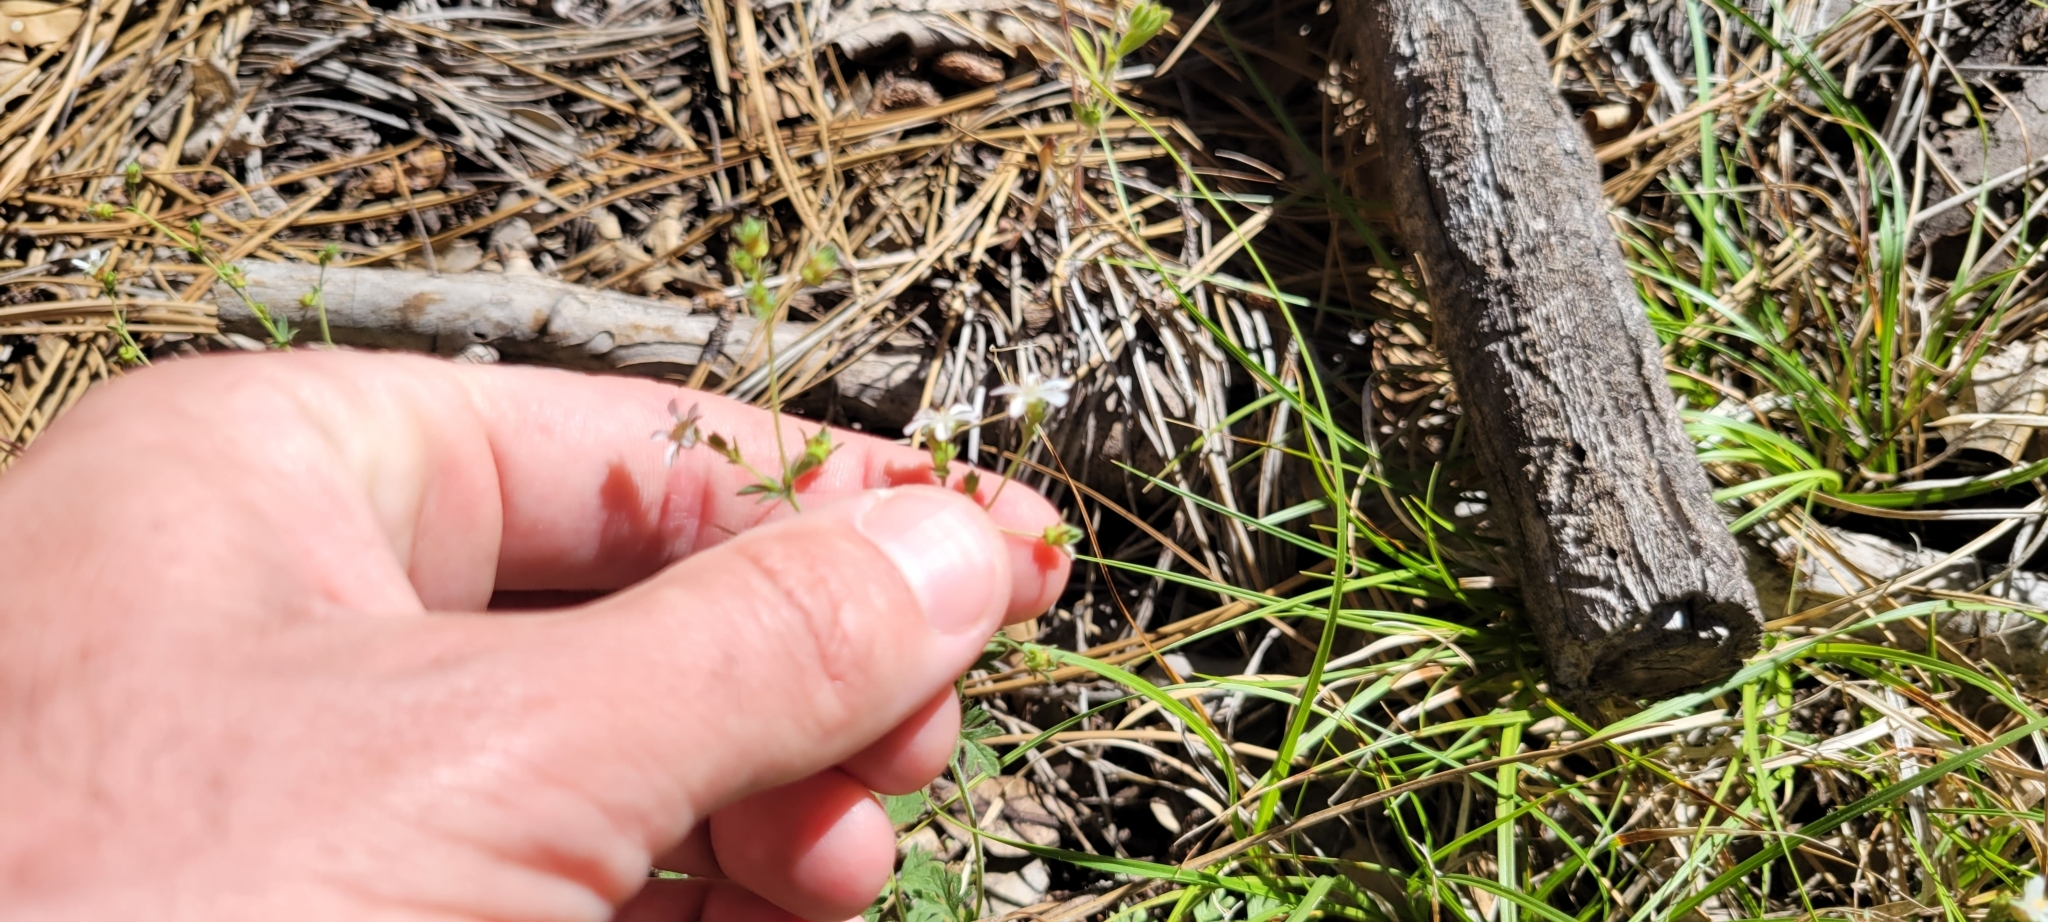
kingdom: Plantae
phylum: Tracheophyta
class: Magnoliopsida
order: Rosales
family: Rosaceae
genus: Potentilla
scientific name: Potentilla wilderae
